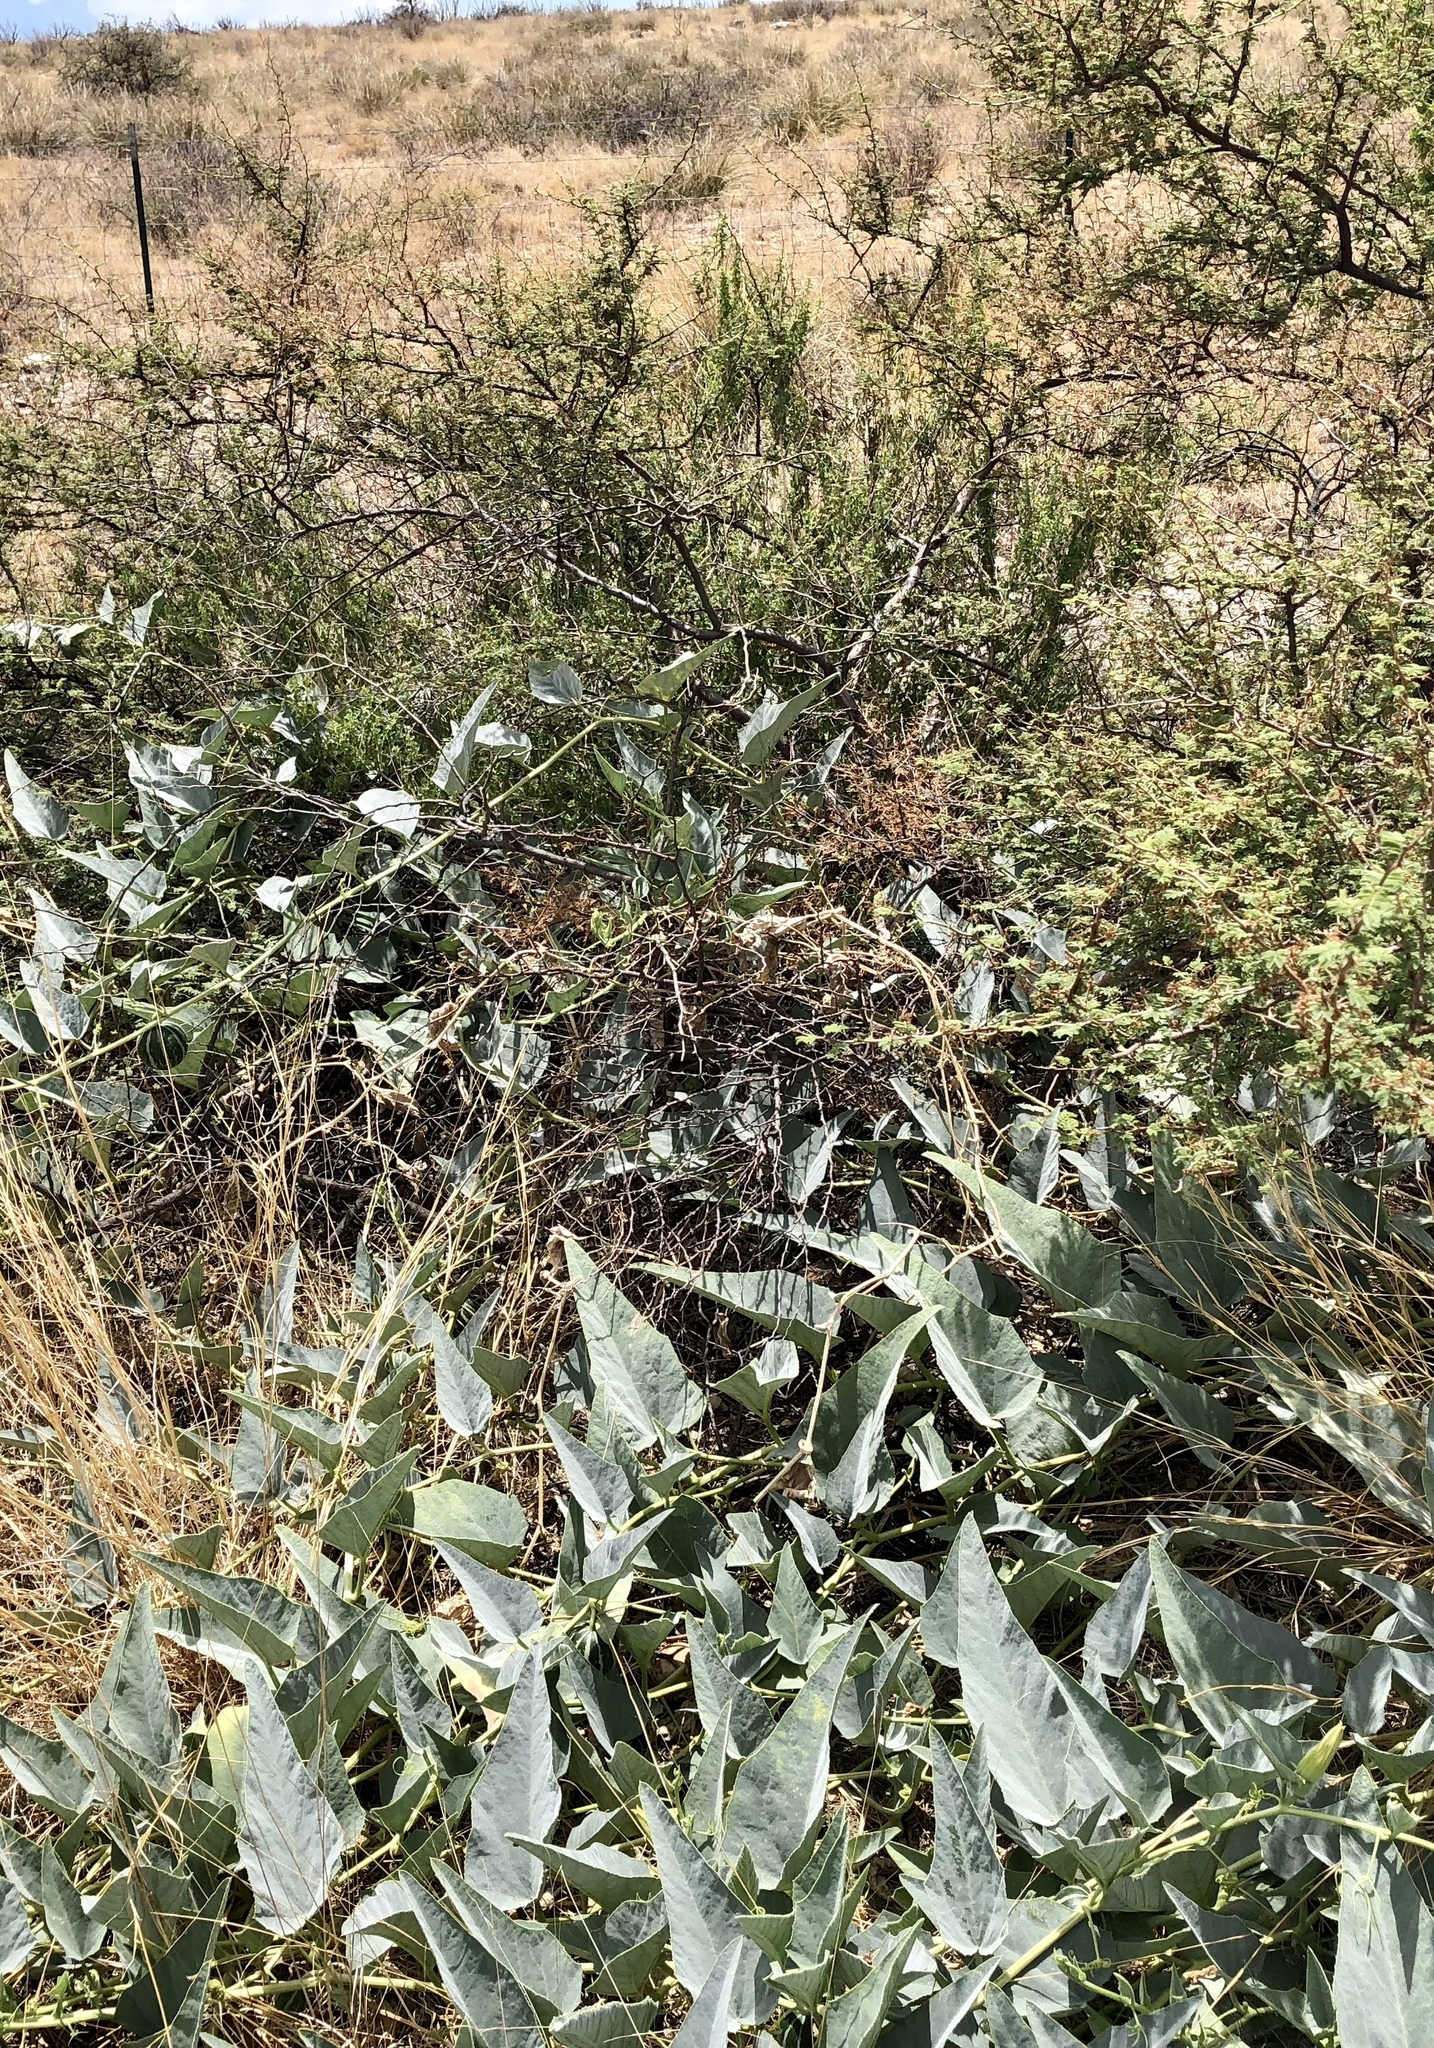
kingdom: Plantae
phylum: Tracheophyta
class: Magnoliopsida
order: Cucurbitales
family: Cucurbitaceae
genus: Cucurbita
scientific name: Cucurbita foetidissima
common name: Buffalo gourd
